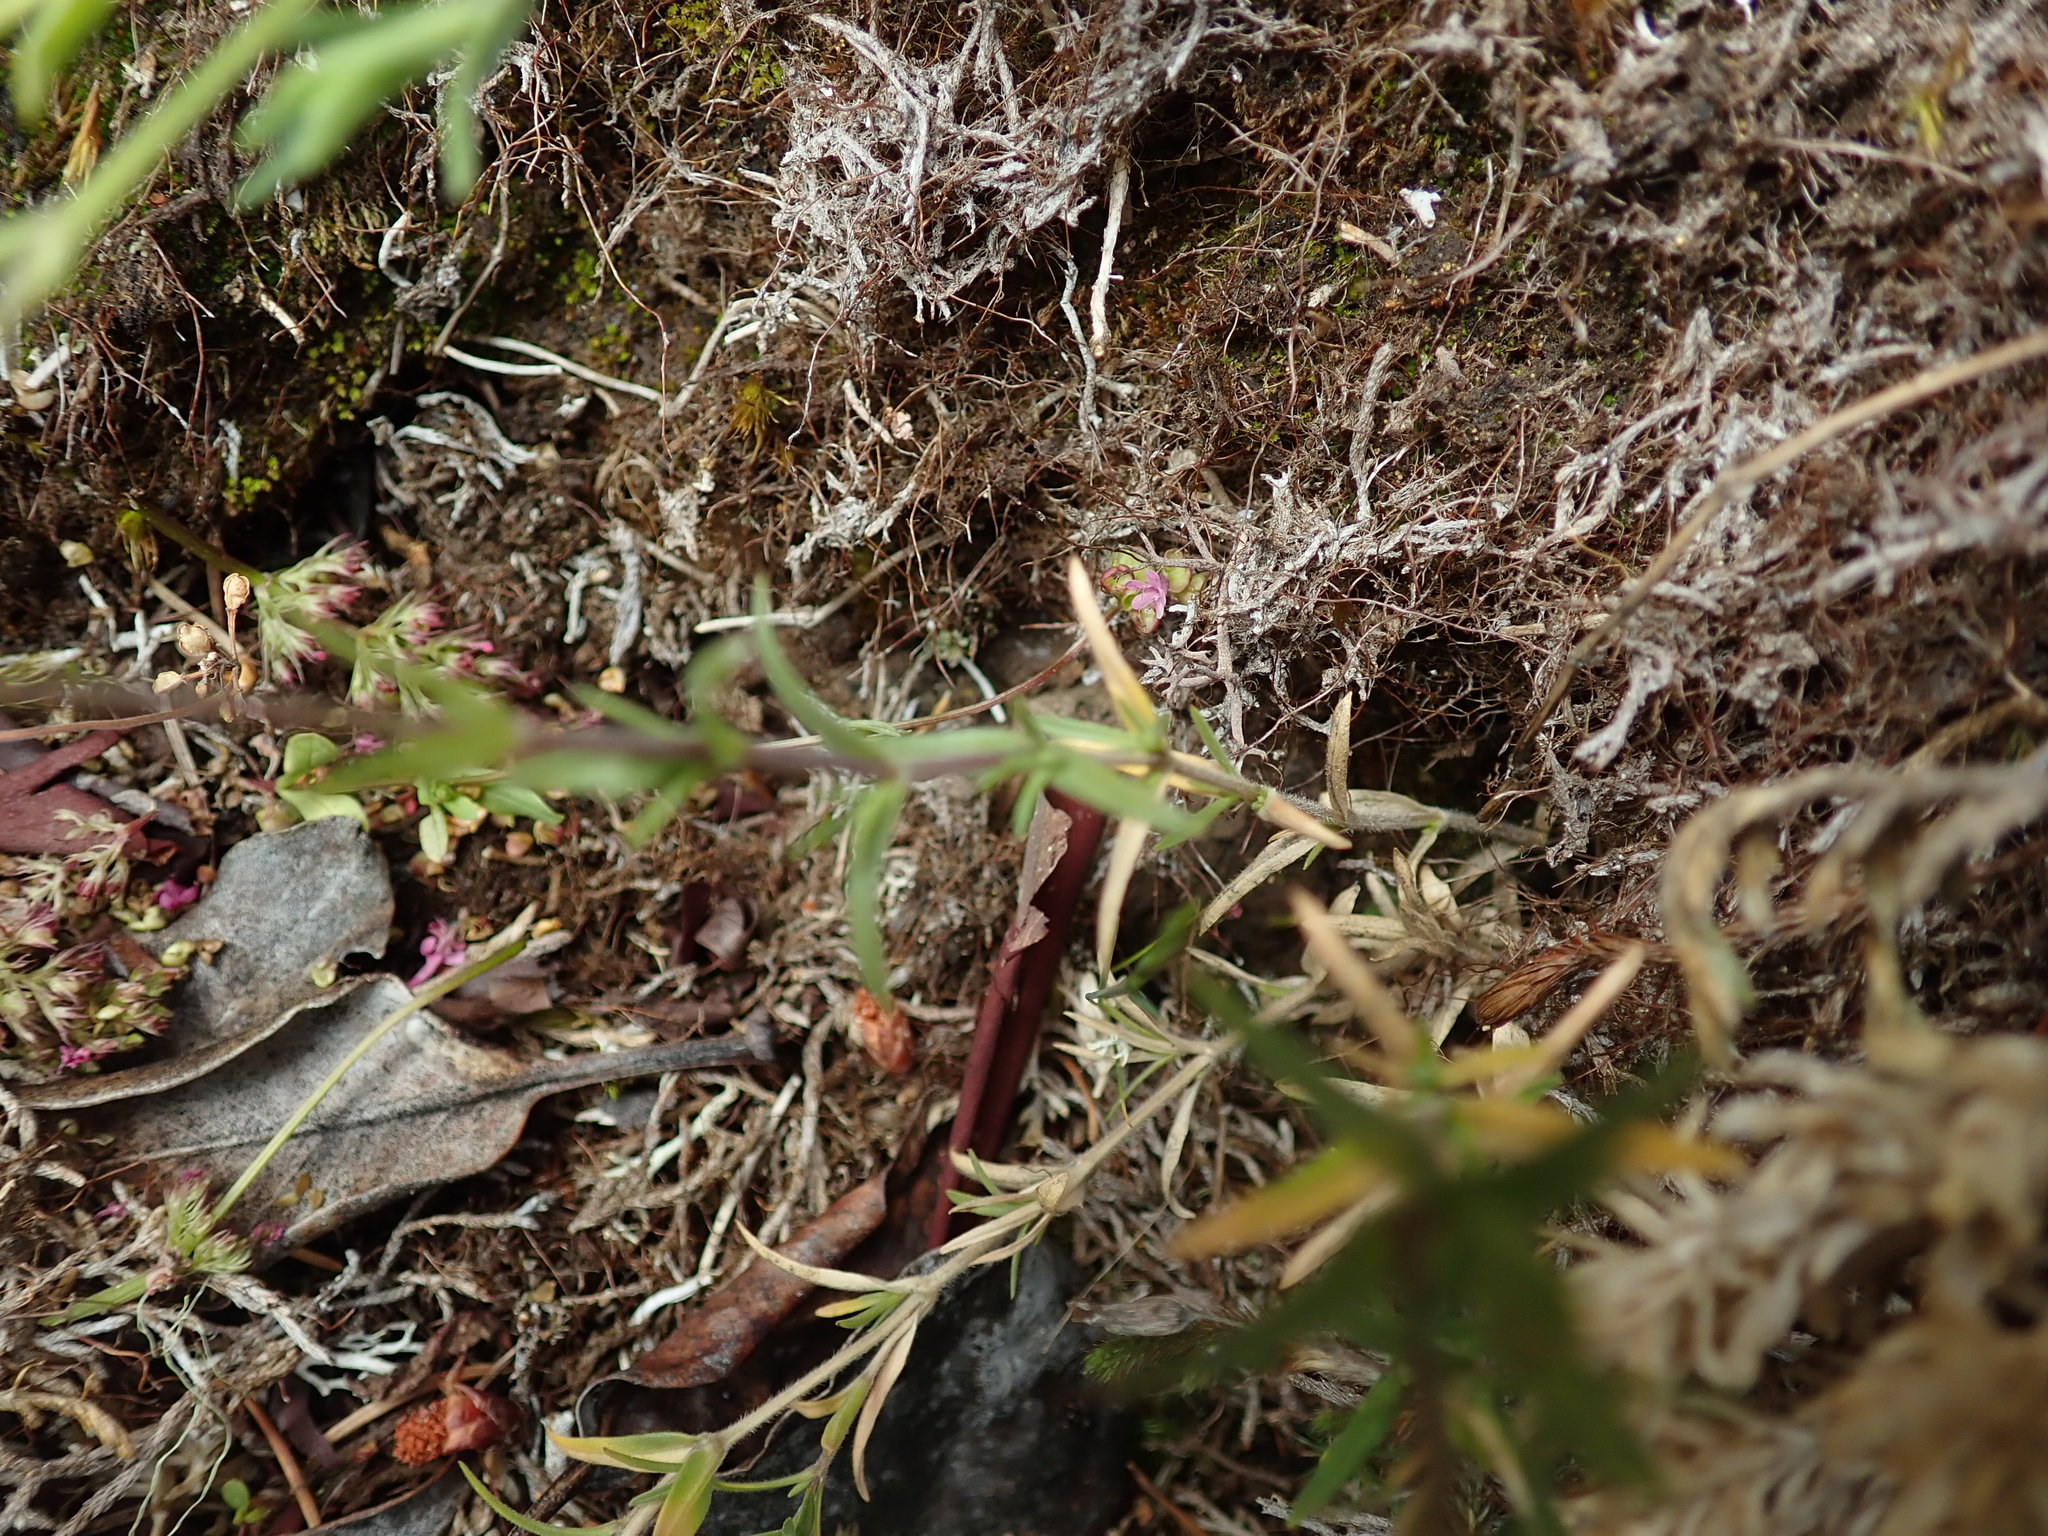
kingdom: Plantae
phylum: Tracheophyta
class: Magnoliopsida
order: Caryophyllales
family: Caryophyllaceae
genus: Cerastium
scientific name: Cerastium arvense
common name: Field mouse-ear
